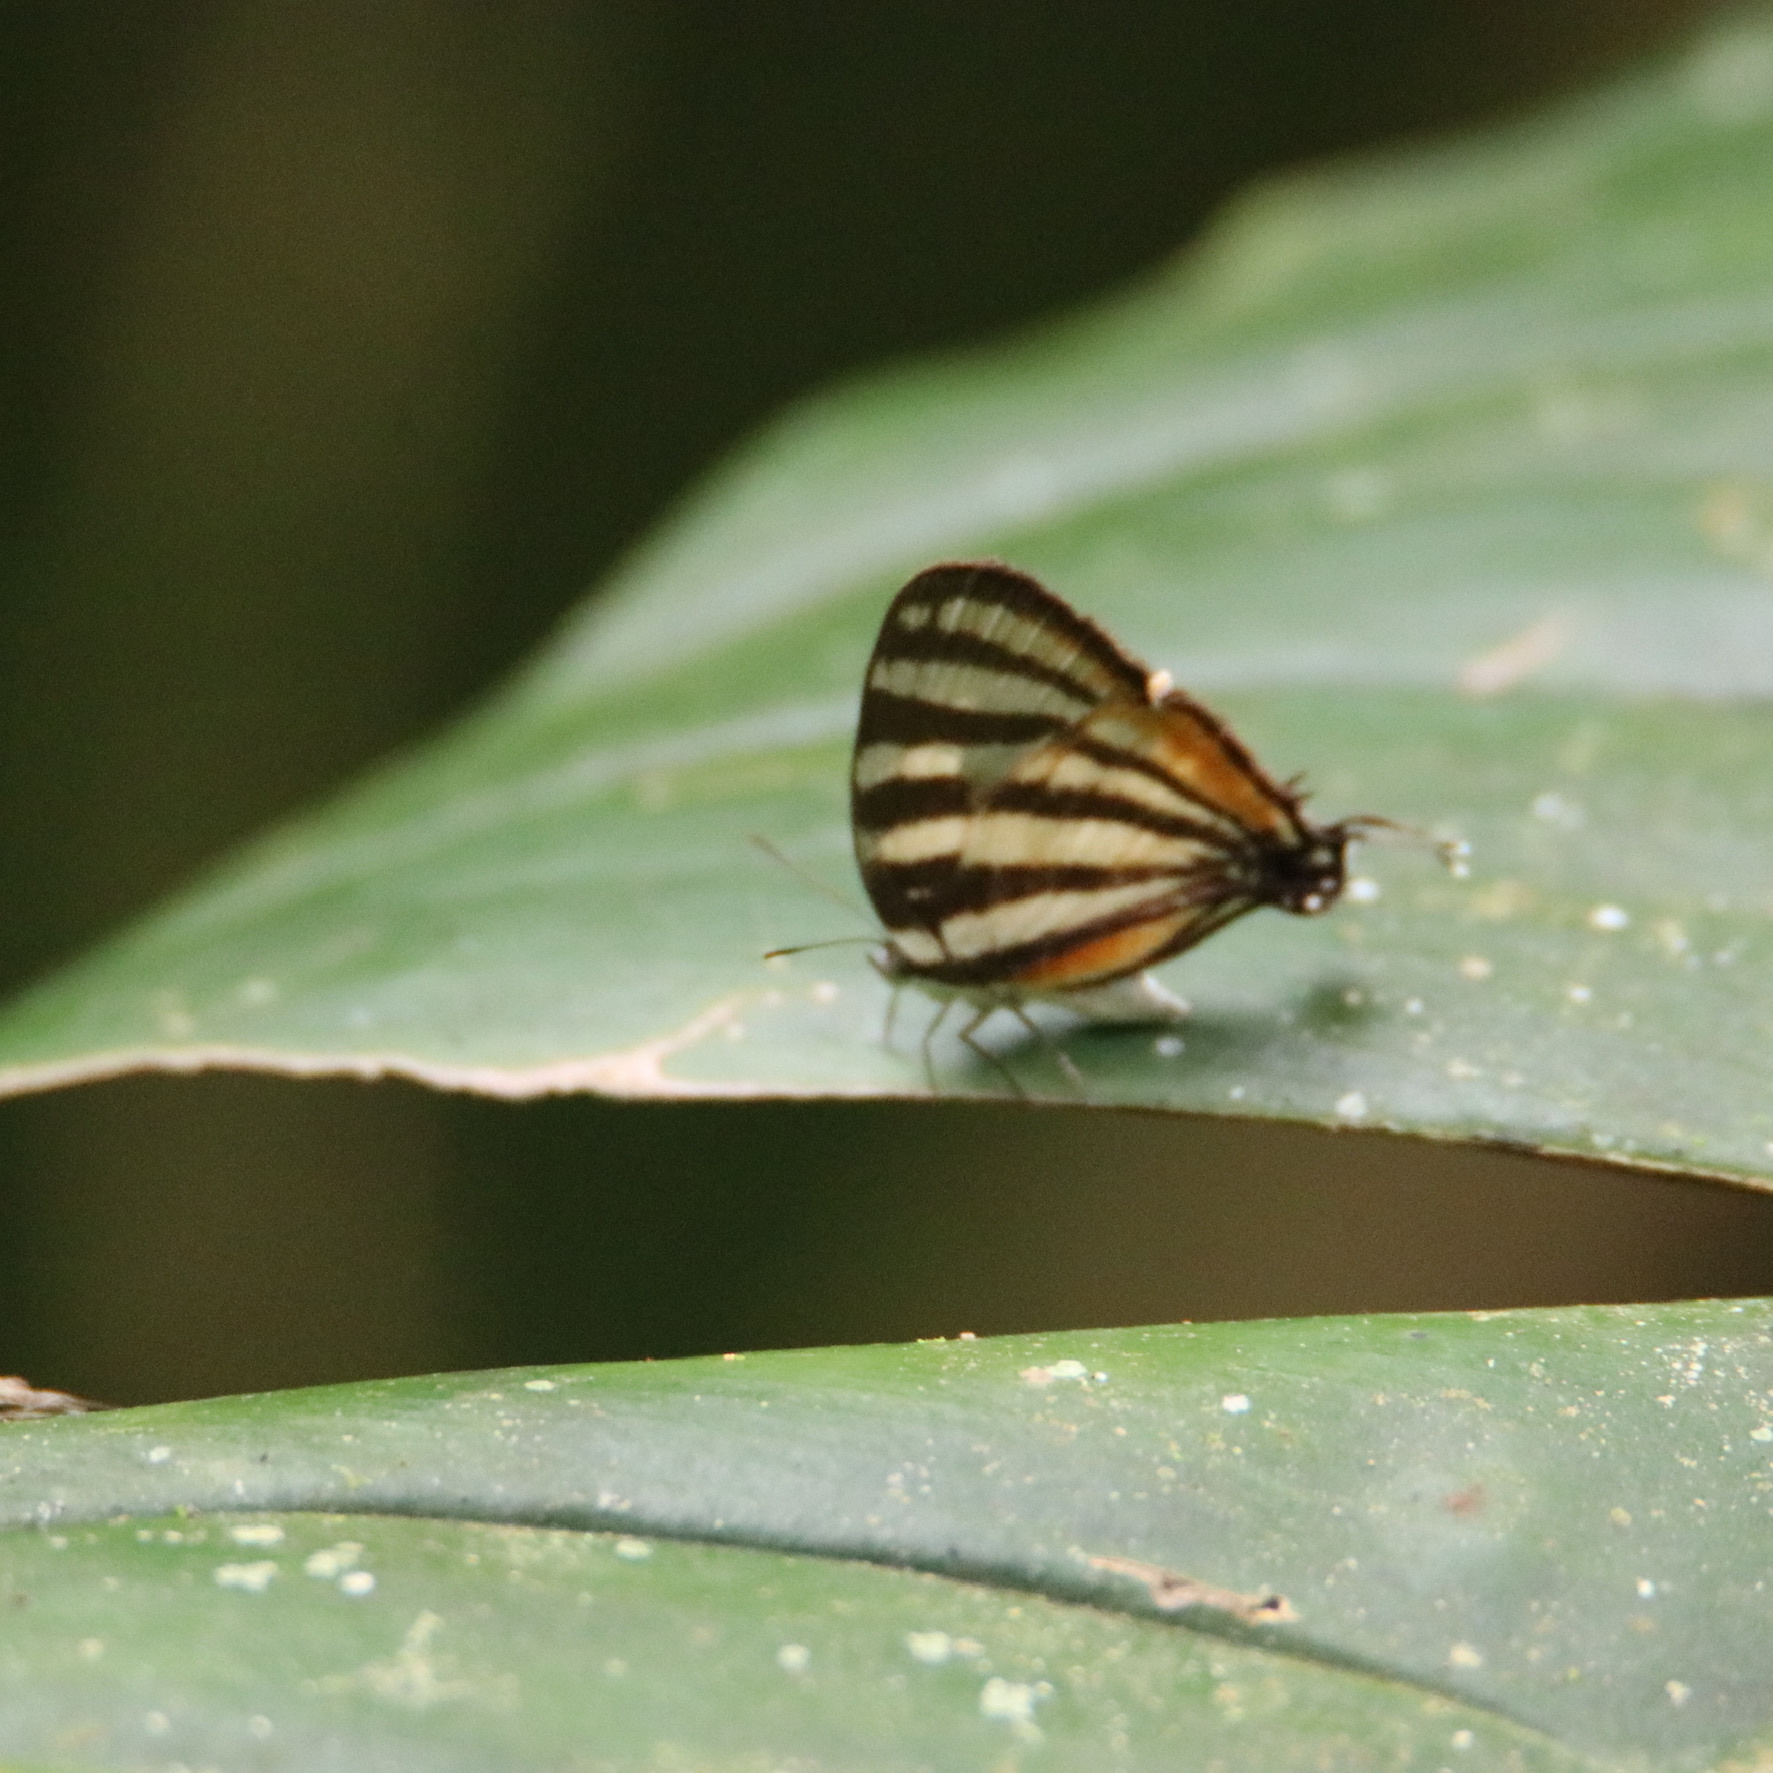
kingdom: Animalia
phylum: Arthropoda
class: Insecta
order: Lepidoptera
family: Lycaenidae
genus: Arawacus
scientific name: Arawacus lincoides
